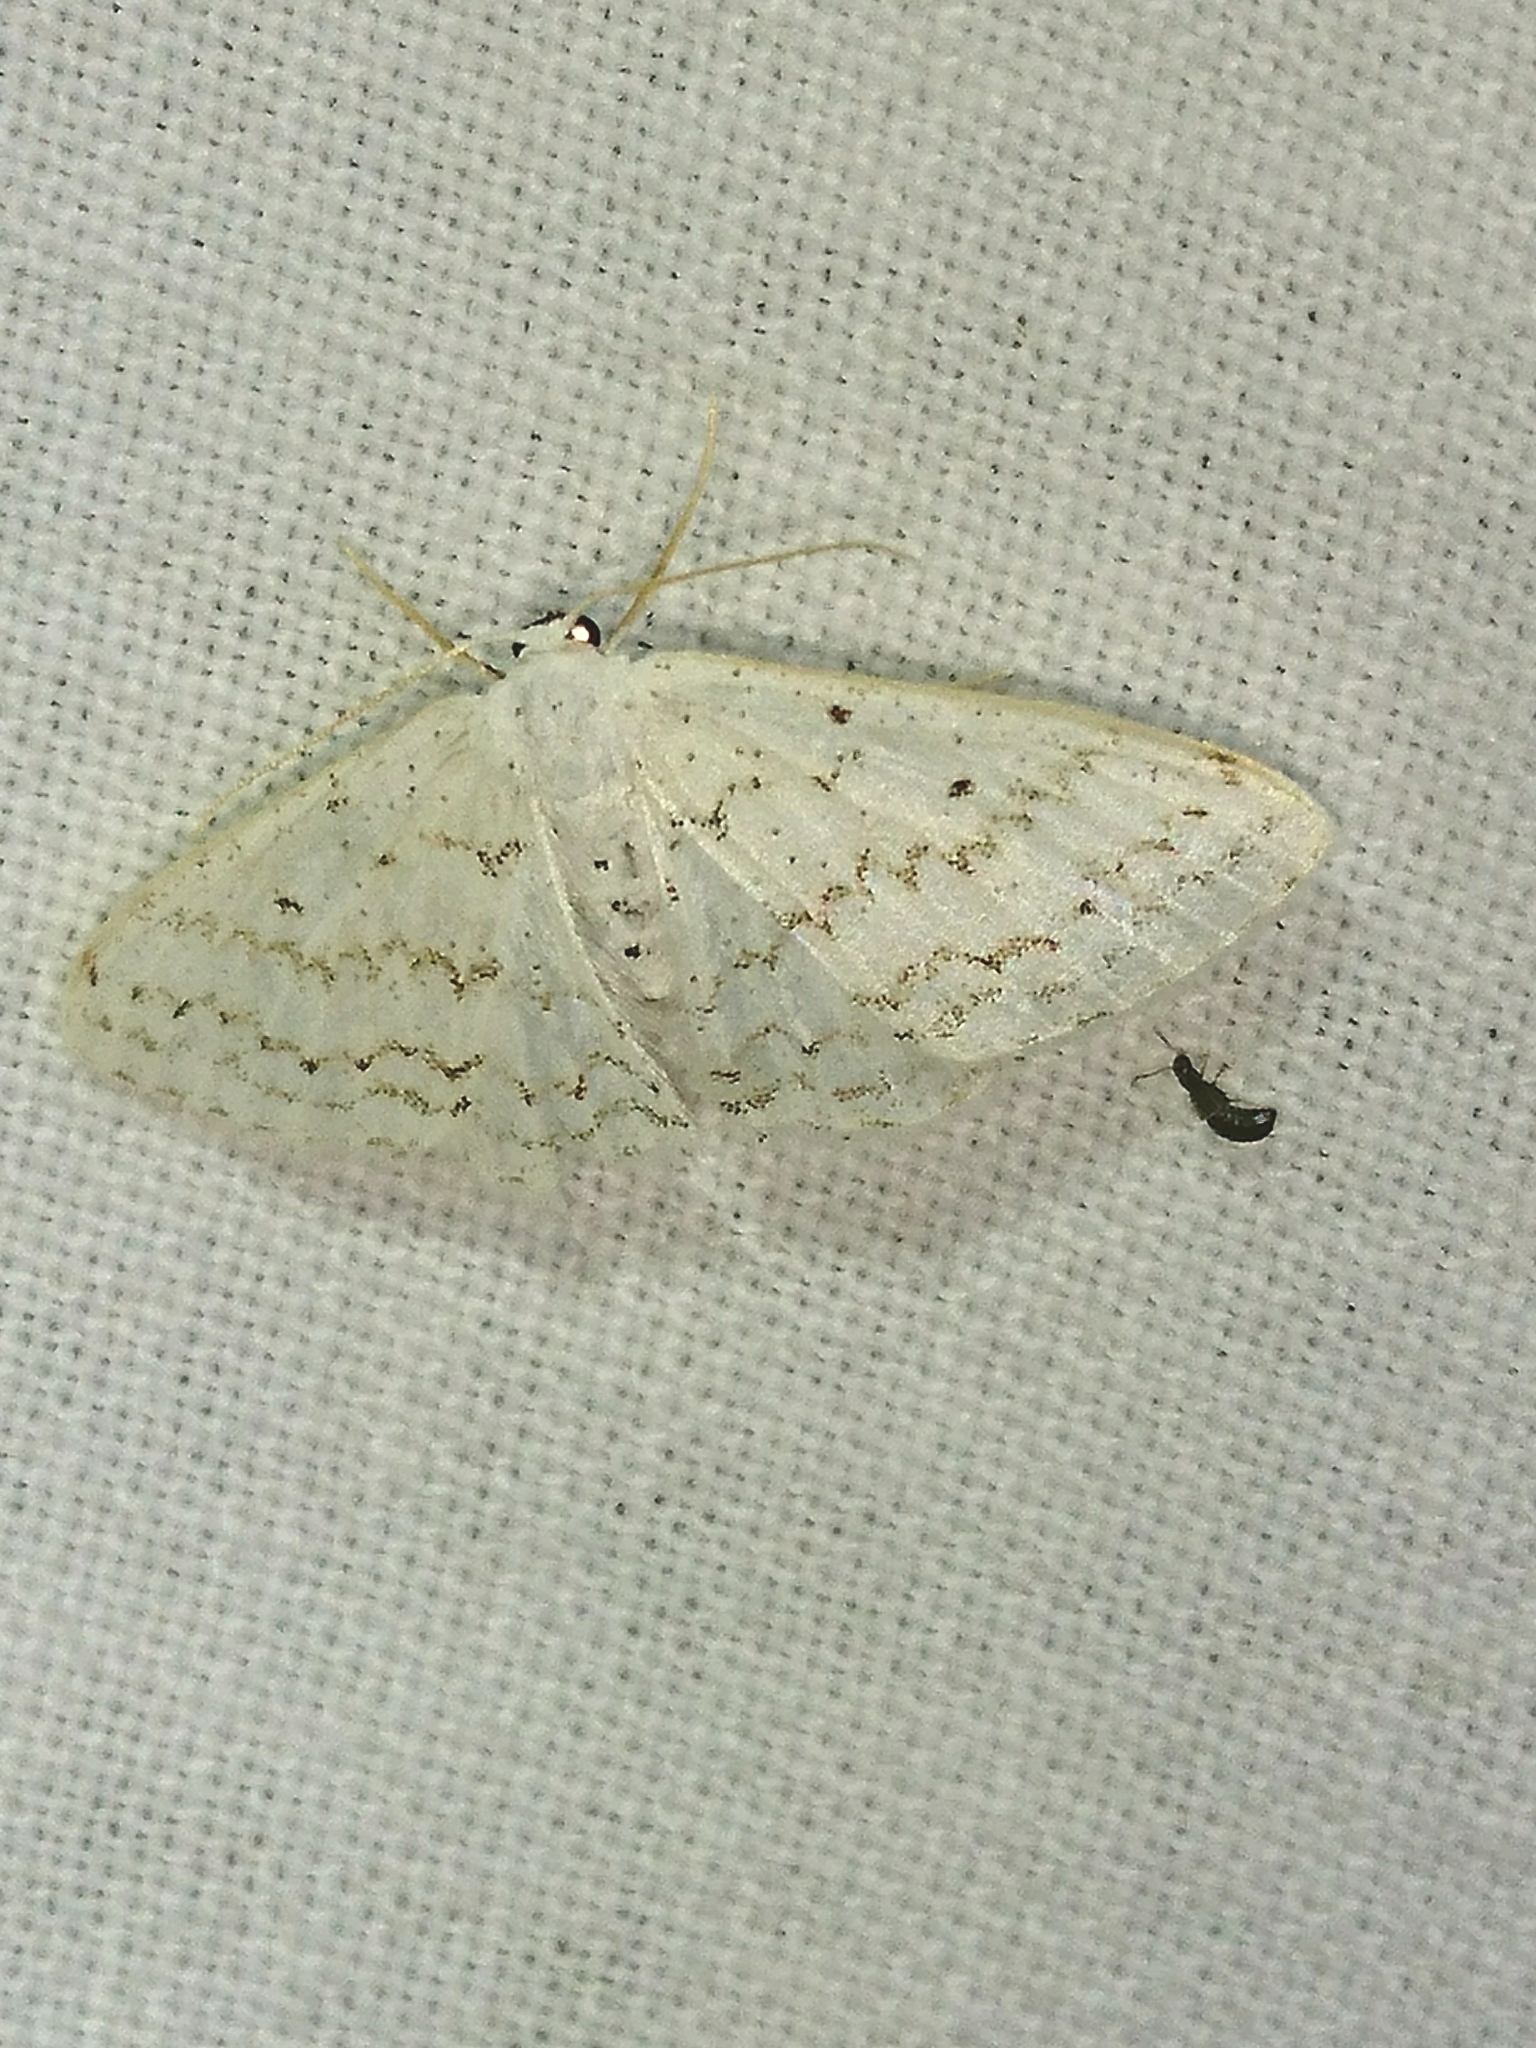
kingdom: Animalia
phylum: Arthropoda
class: Insecta
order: Lepidoptera
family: Geometridae
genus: Idaea
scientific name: Idaea tacturata
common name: Dot-lined wave
